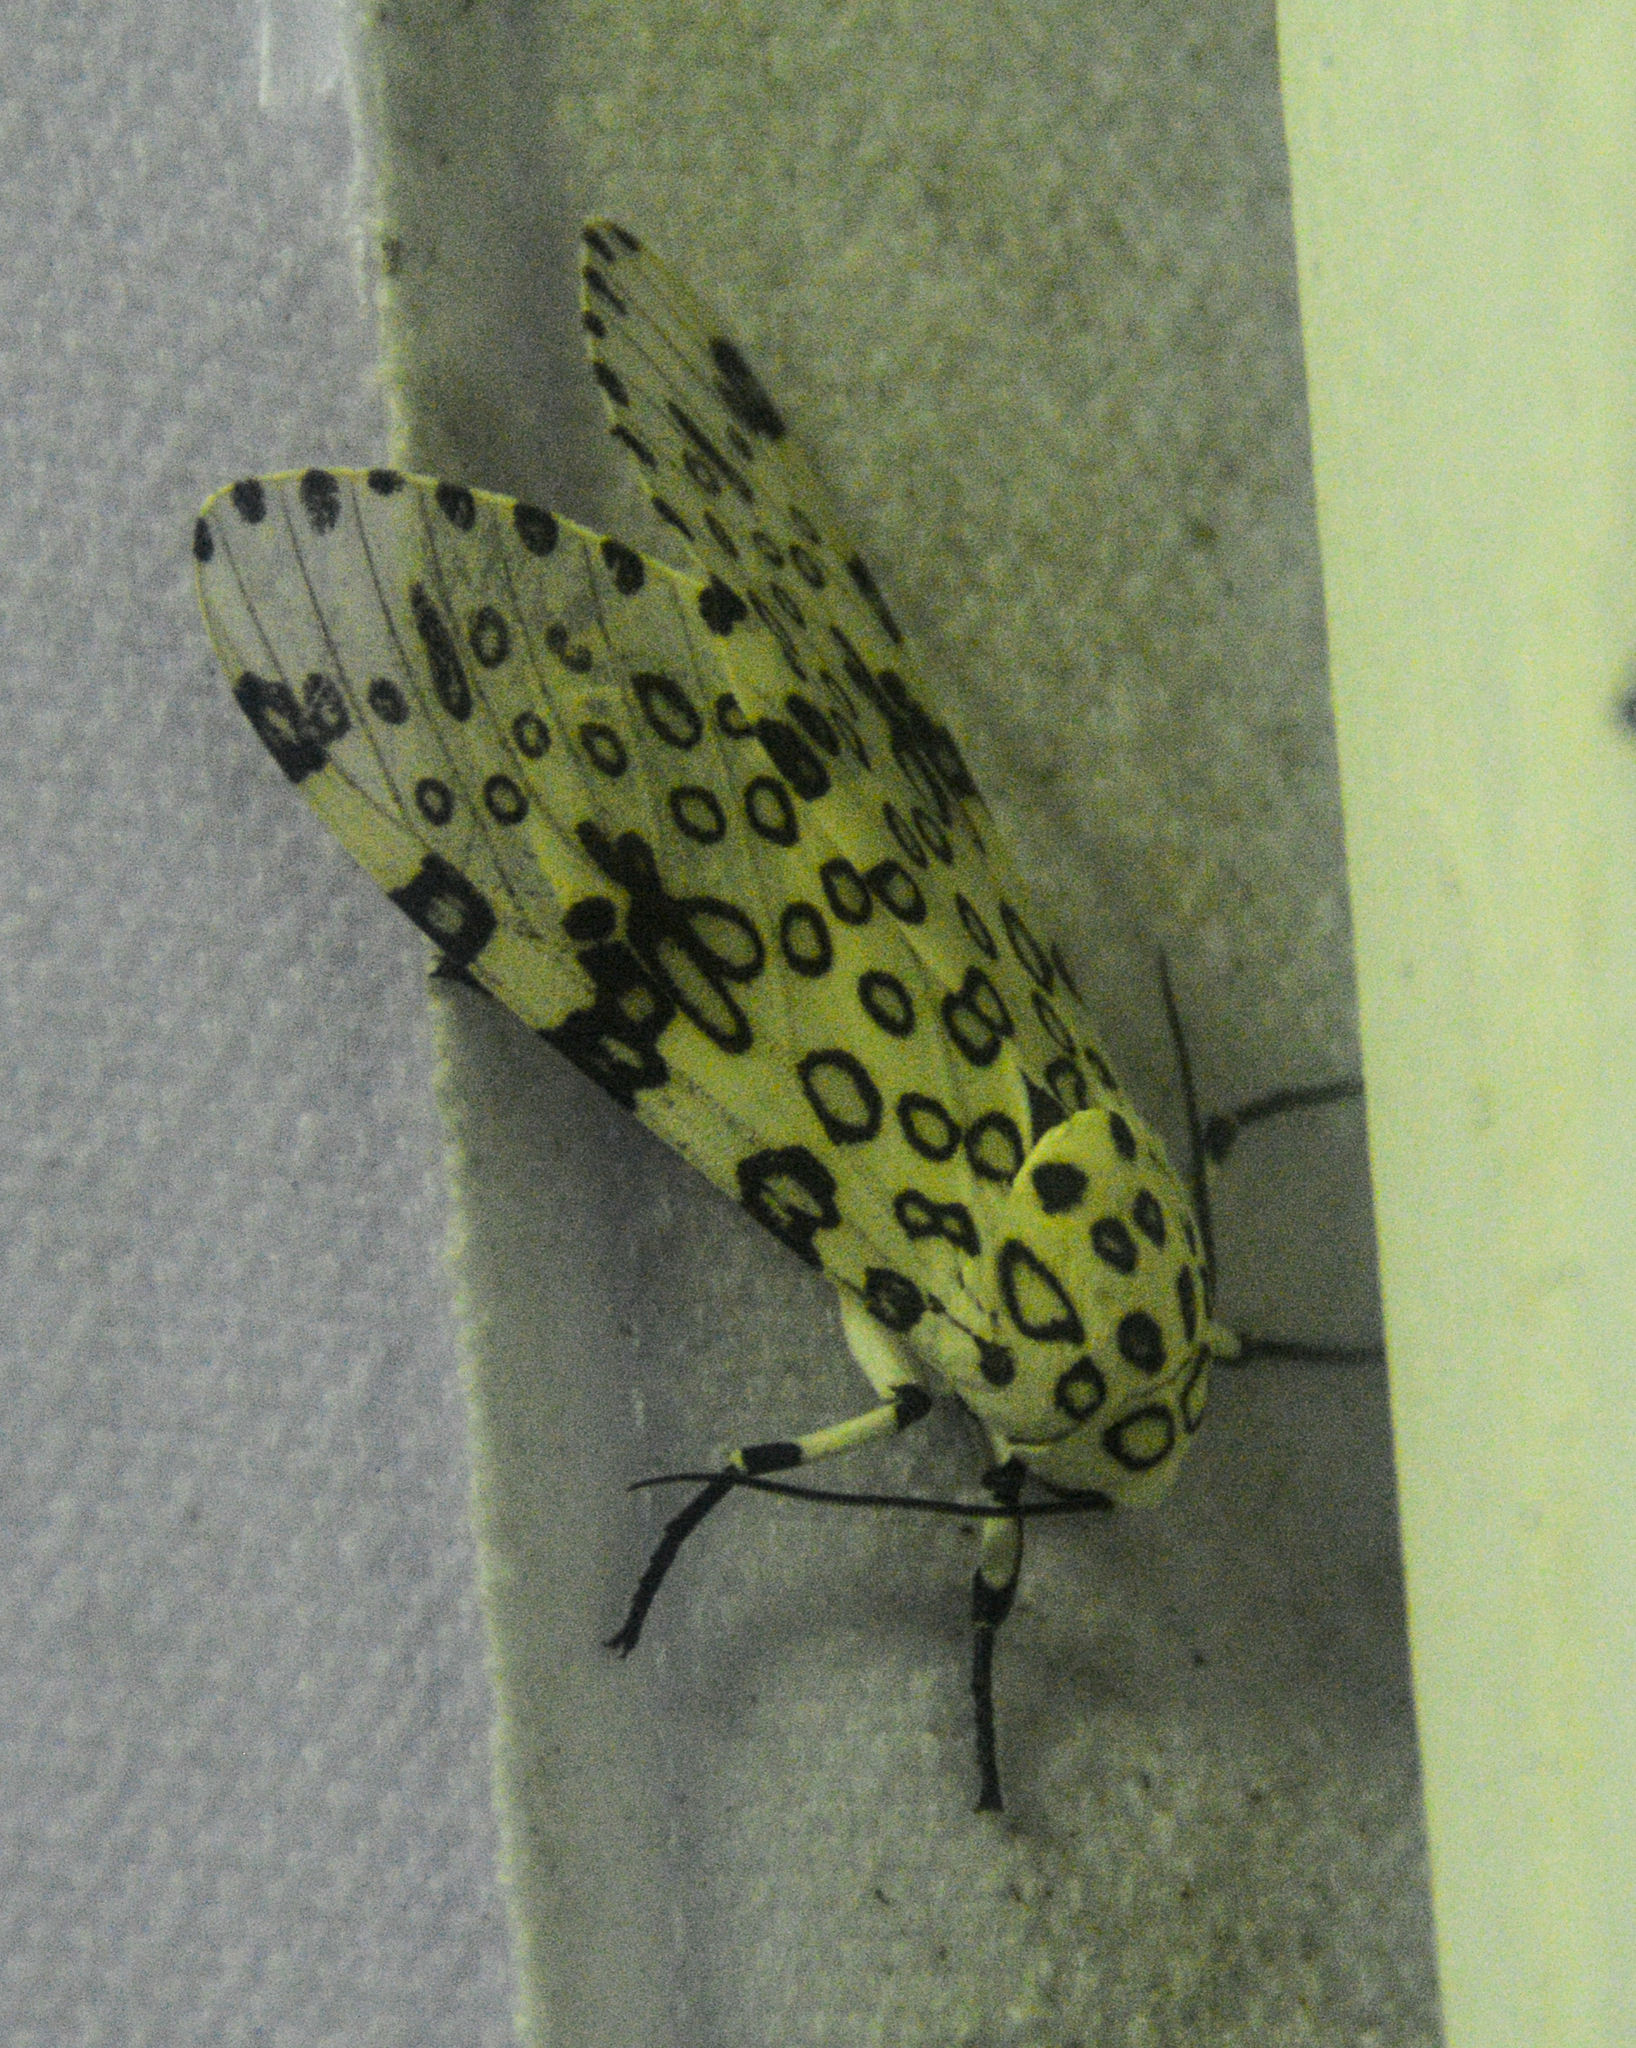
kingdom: Animalia
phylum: Arthropoda
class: Insecta
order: Lepidoptera
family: Erebidae
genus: Hypercompe
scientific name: Hypercompe scribonia
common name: Giant leopard moth
